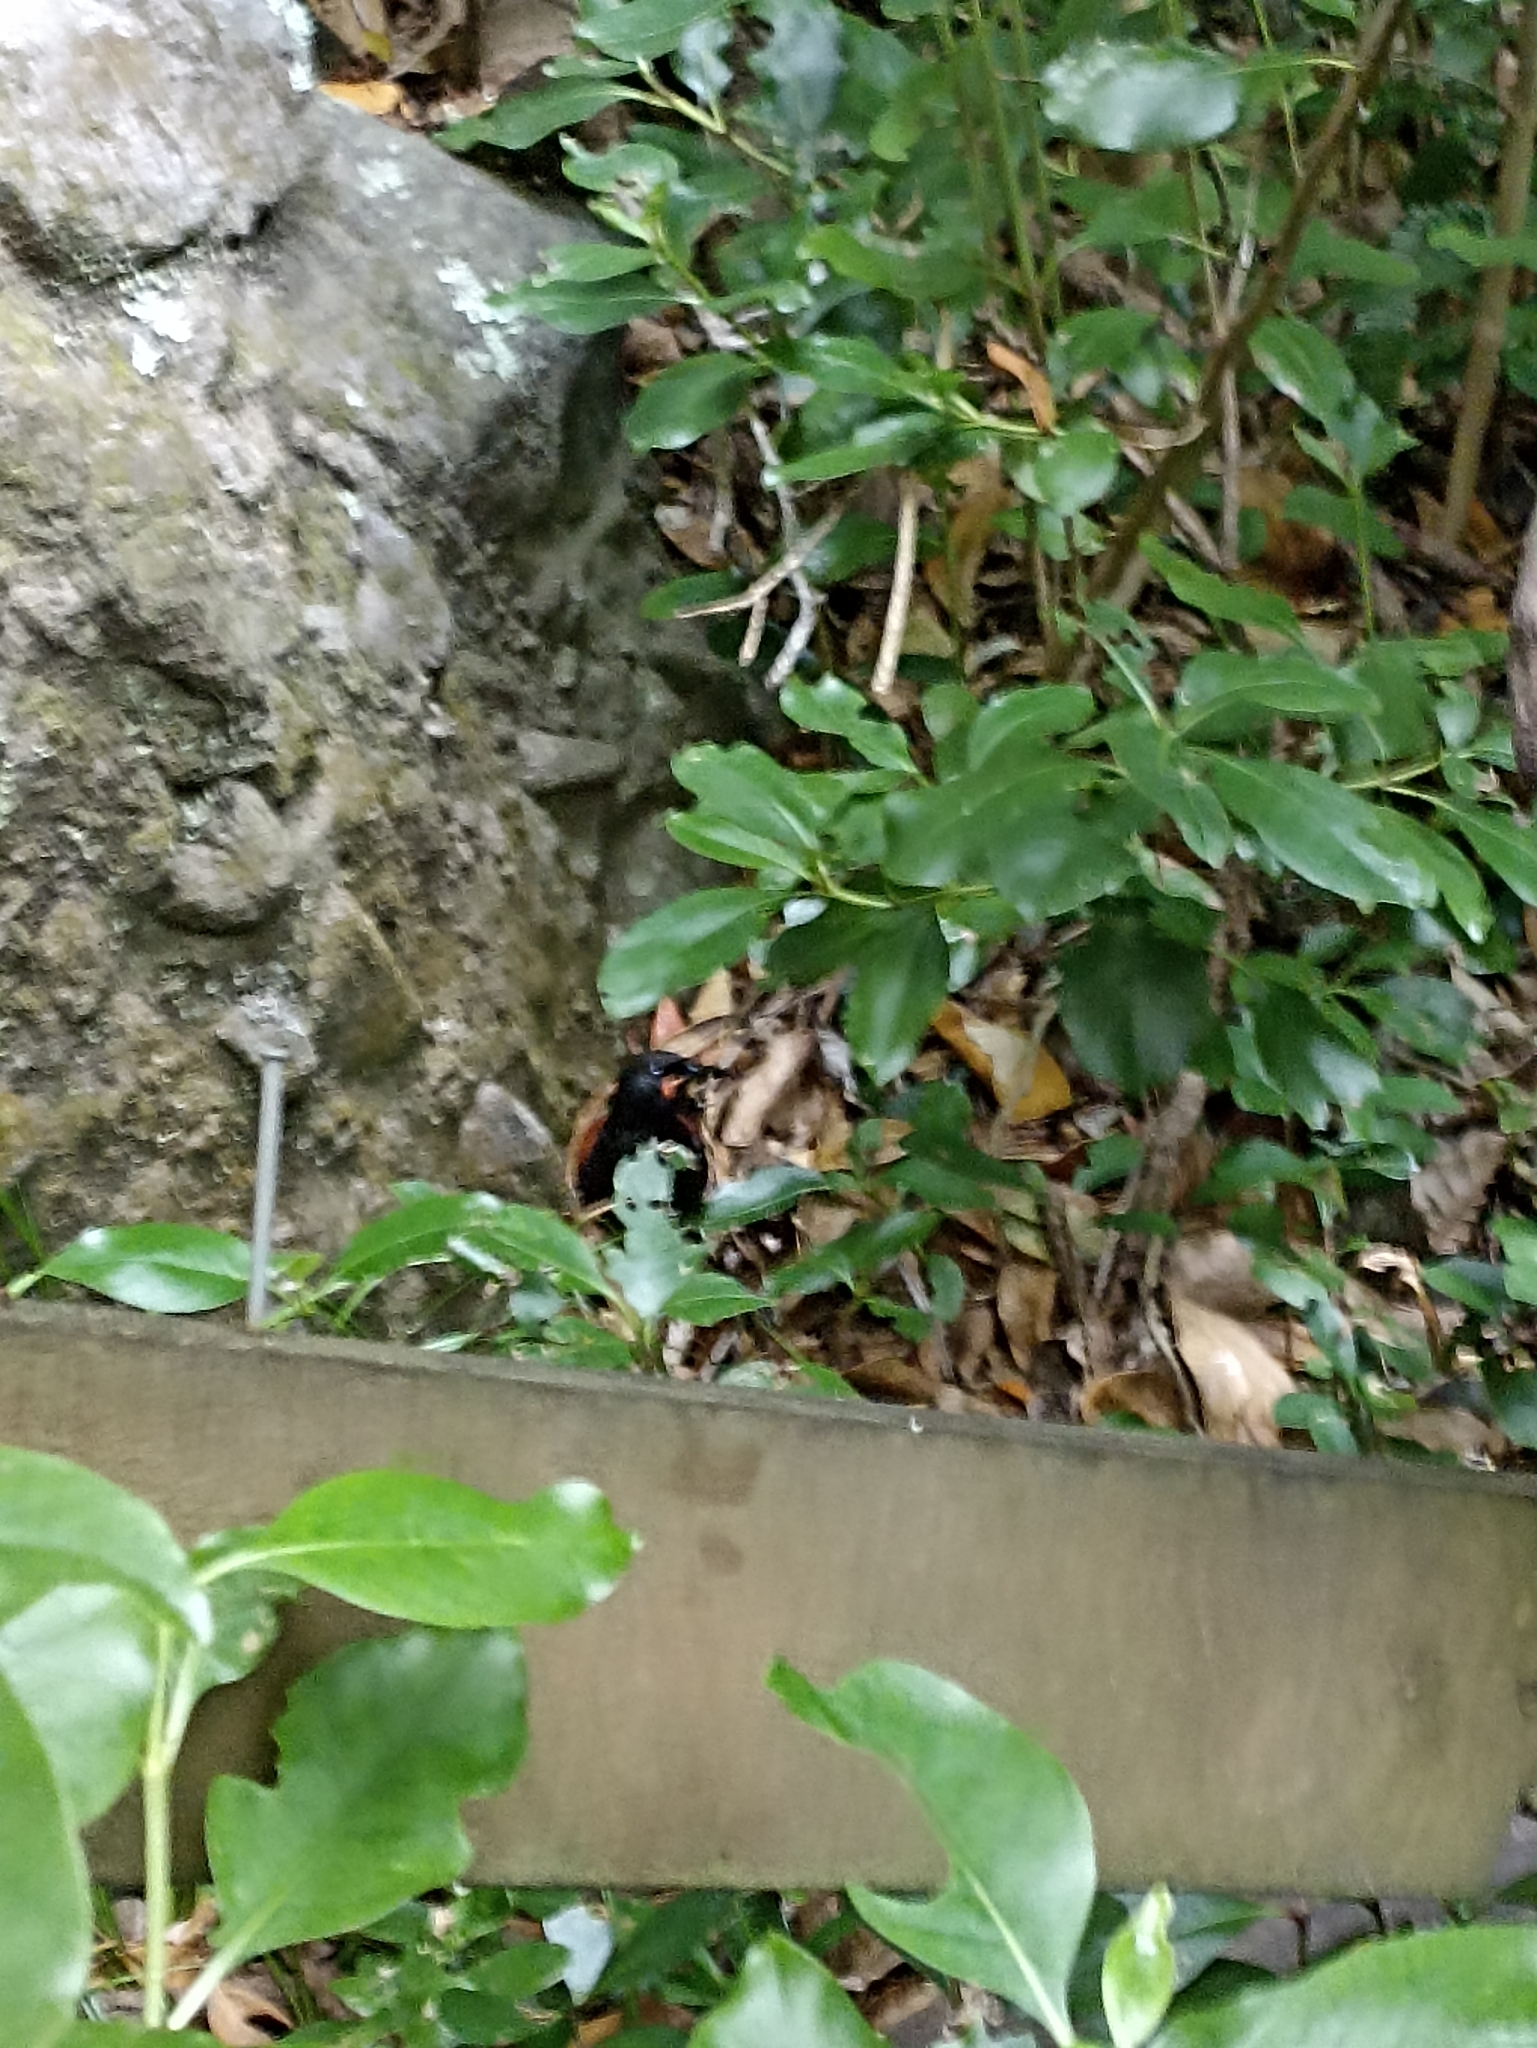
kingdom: Animalia
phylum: Chordata
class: Aves
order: Passeriformes
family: Callaeatidae
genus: Philesturnus
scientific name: Philesturnus carunculatus
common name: South island saddleback
